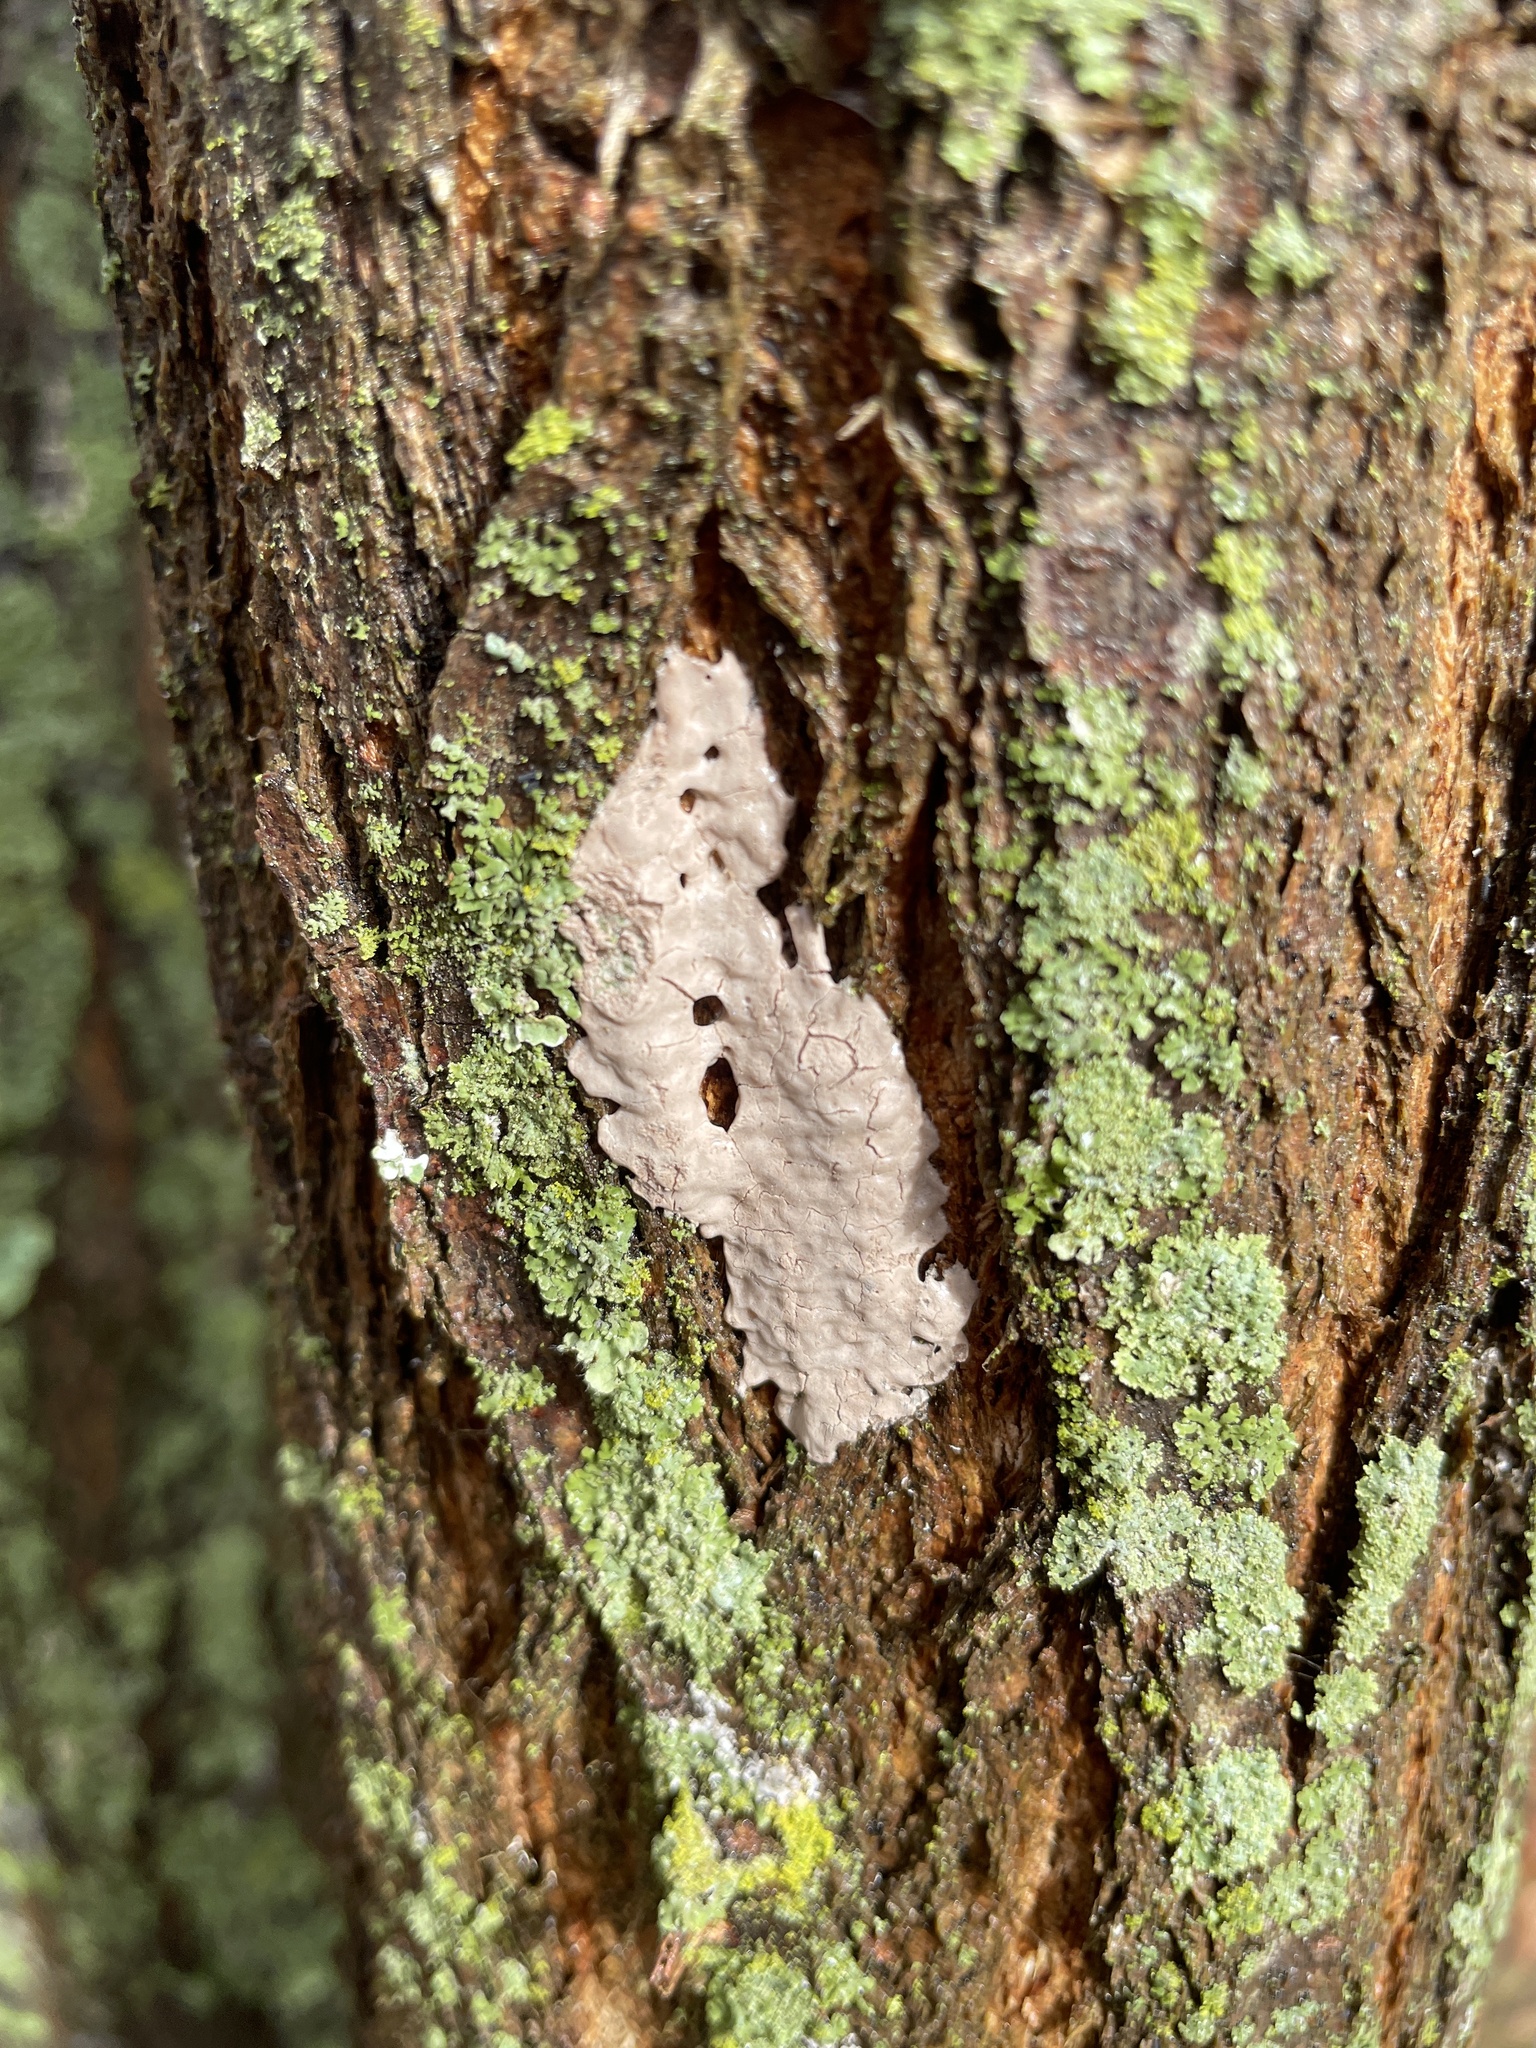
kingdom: Animalia
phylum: Arthropoda
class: Insecta
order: Hemiptera
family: Fulgoridae
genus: Lycorma
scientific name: Lycorma delicatula
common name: Spotted lanternfly
